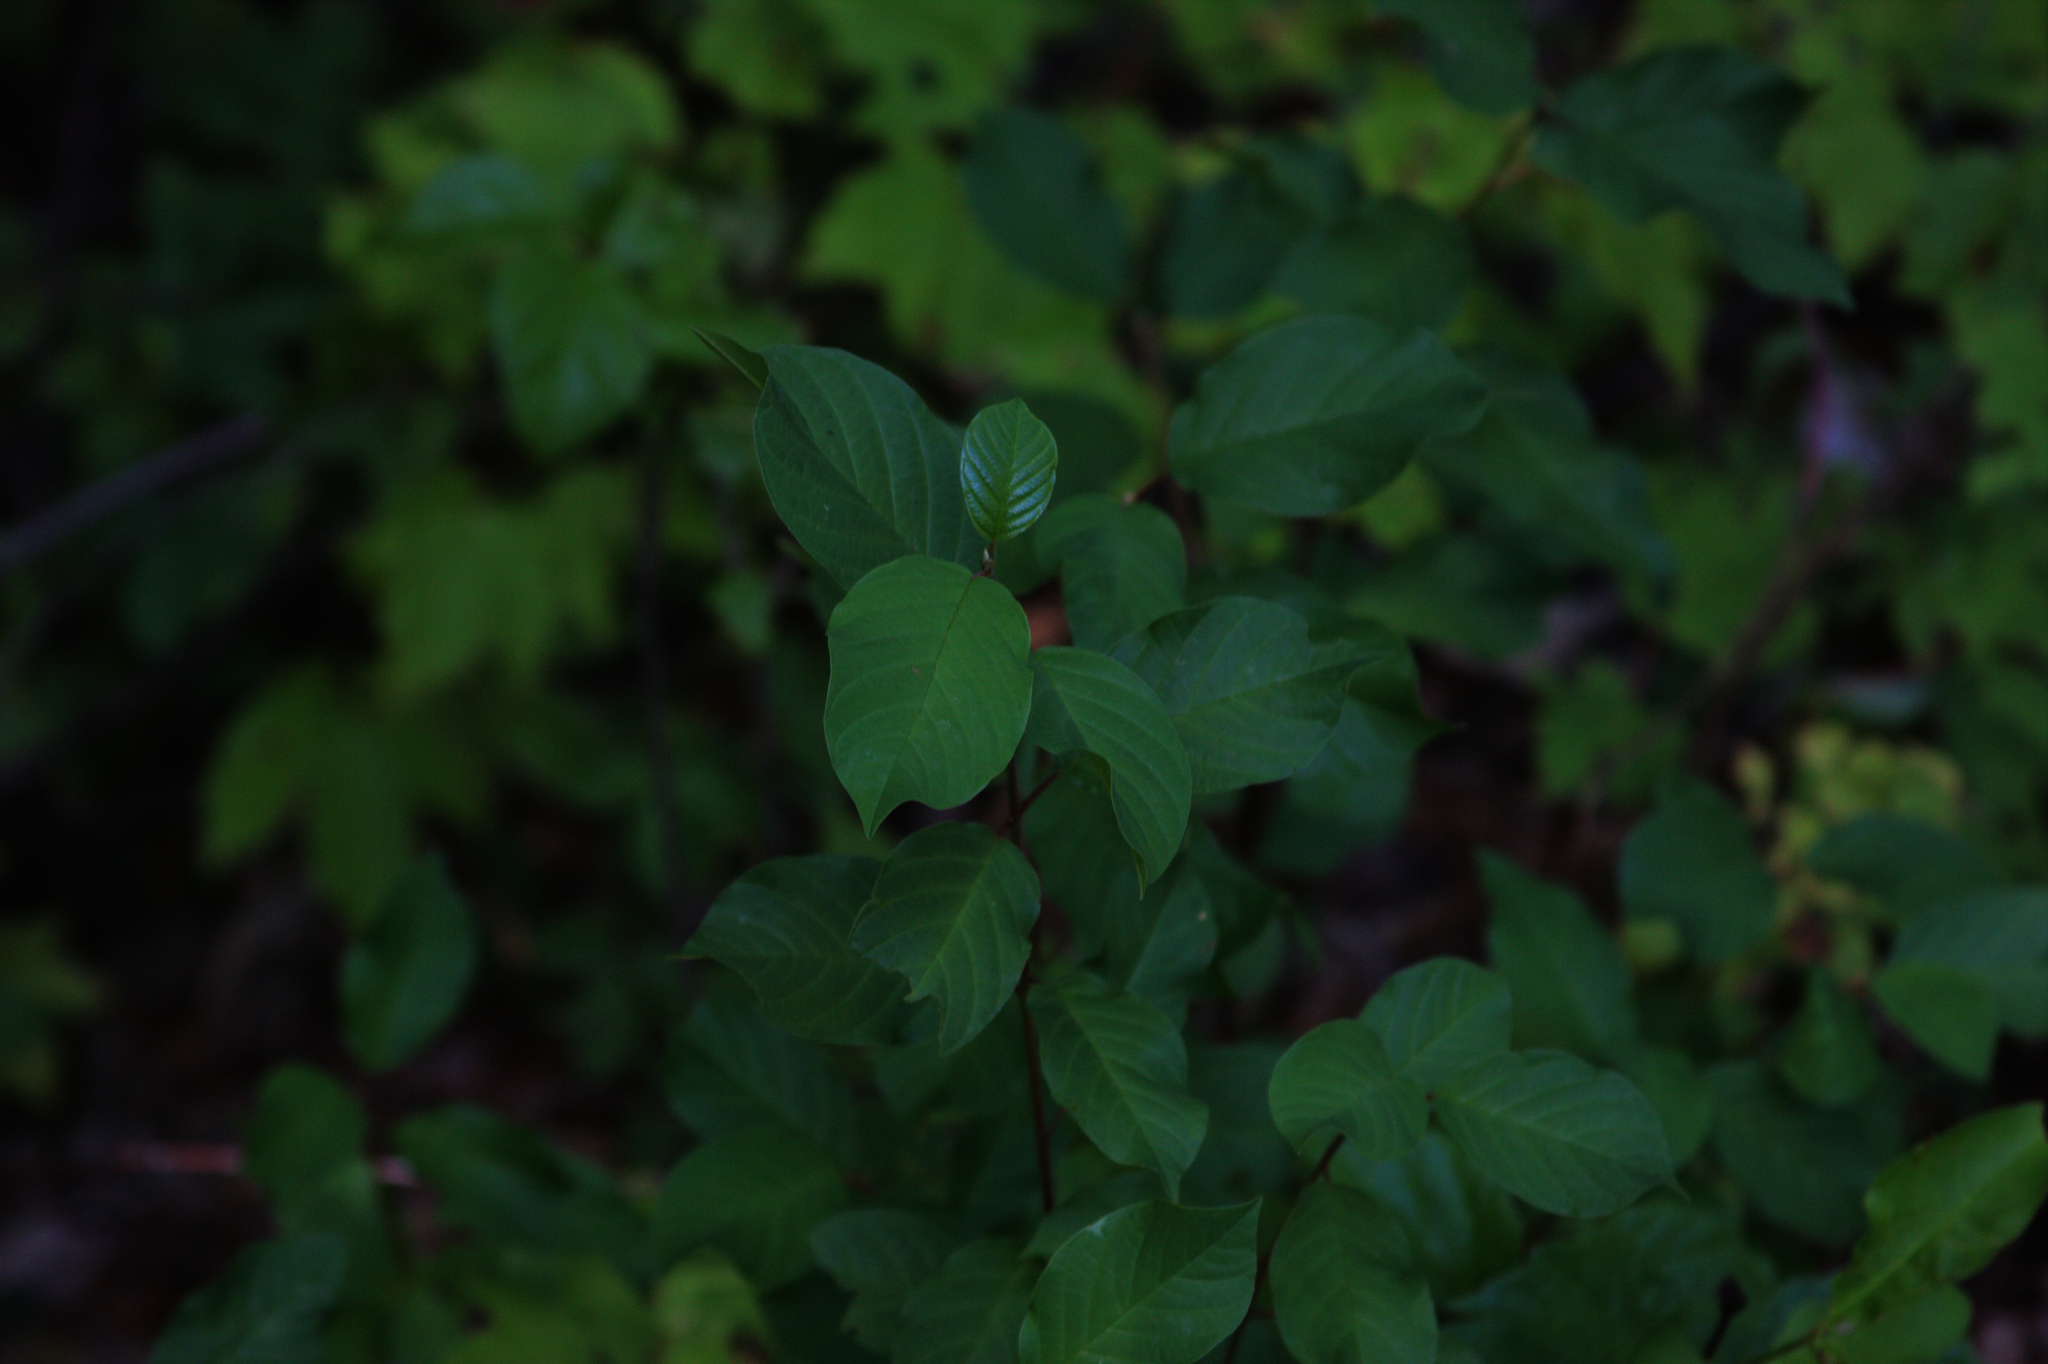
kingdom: Plantae
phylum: Tracheophyta
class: Magnoliopsida
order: Rosales
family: Rhamnaceae
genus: Frangula
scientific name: Frangula alnus
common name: Alder buckthorn
